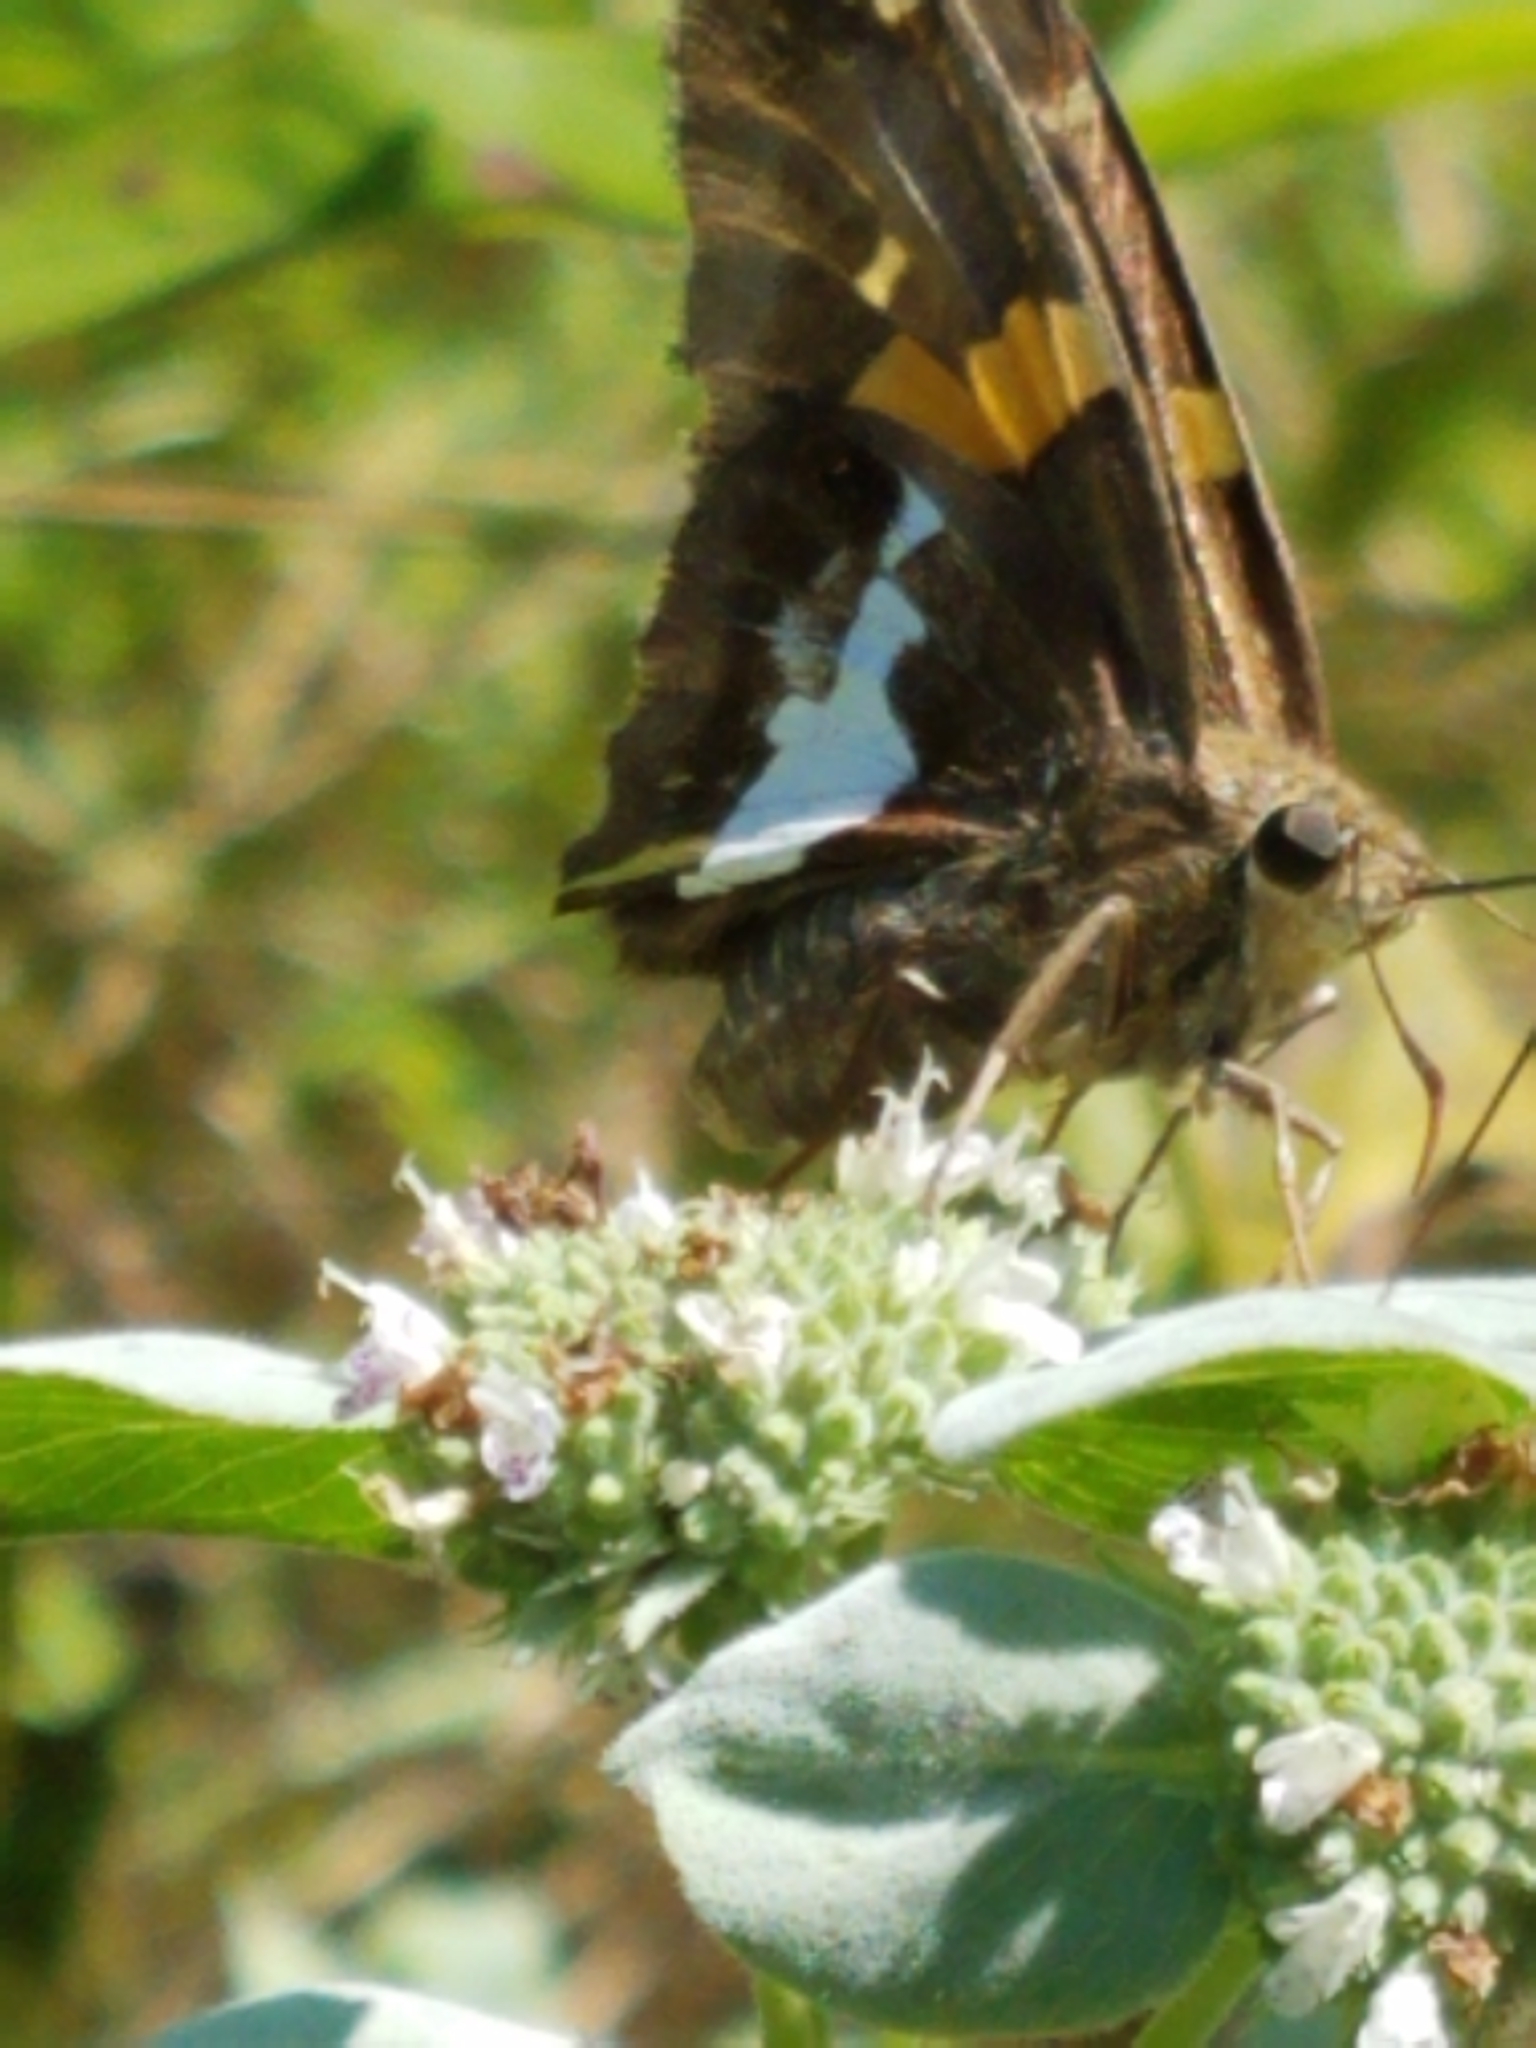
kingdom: Animalia
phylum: Arthropoda
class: Insecta
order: Lepidoptera
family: Hesperiidae
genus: Epargyreus
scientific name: Epargyreus clarus
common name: Silver-spotted skipper
